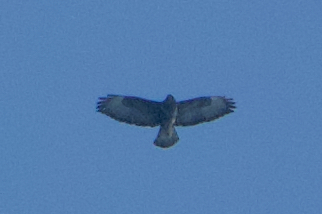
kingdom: Animalia
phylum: Chordata
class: Aves
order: Accipitriformes
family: Accipitridae
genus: Buteo
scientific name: Buteo buteo
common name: Common buzzard
